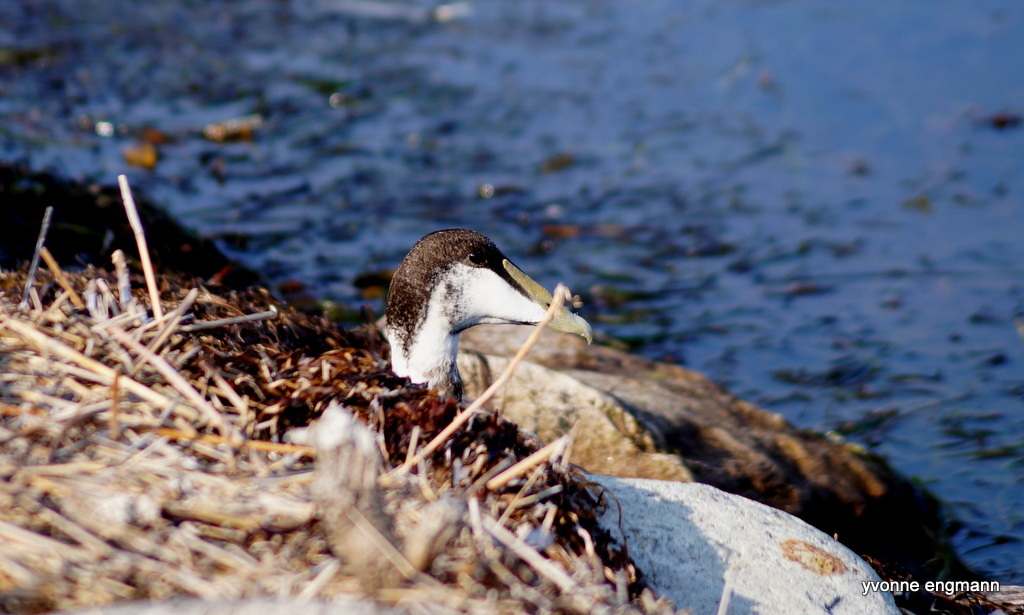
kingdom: Animalia
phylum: Chordata
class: Aves
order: Anseriformes
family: Anatidae
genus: Somateria
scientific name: Somateria mollissima
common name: Common eider
